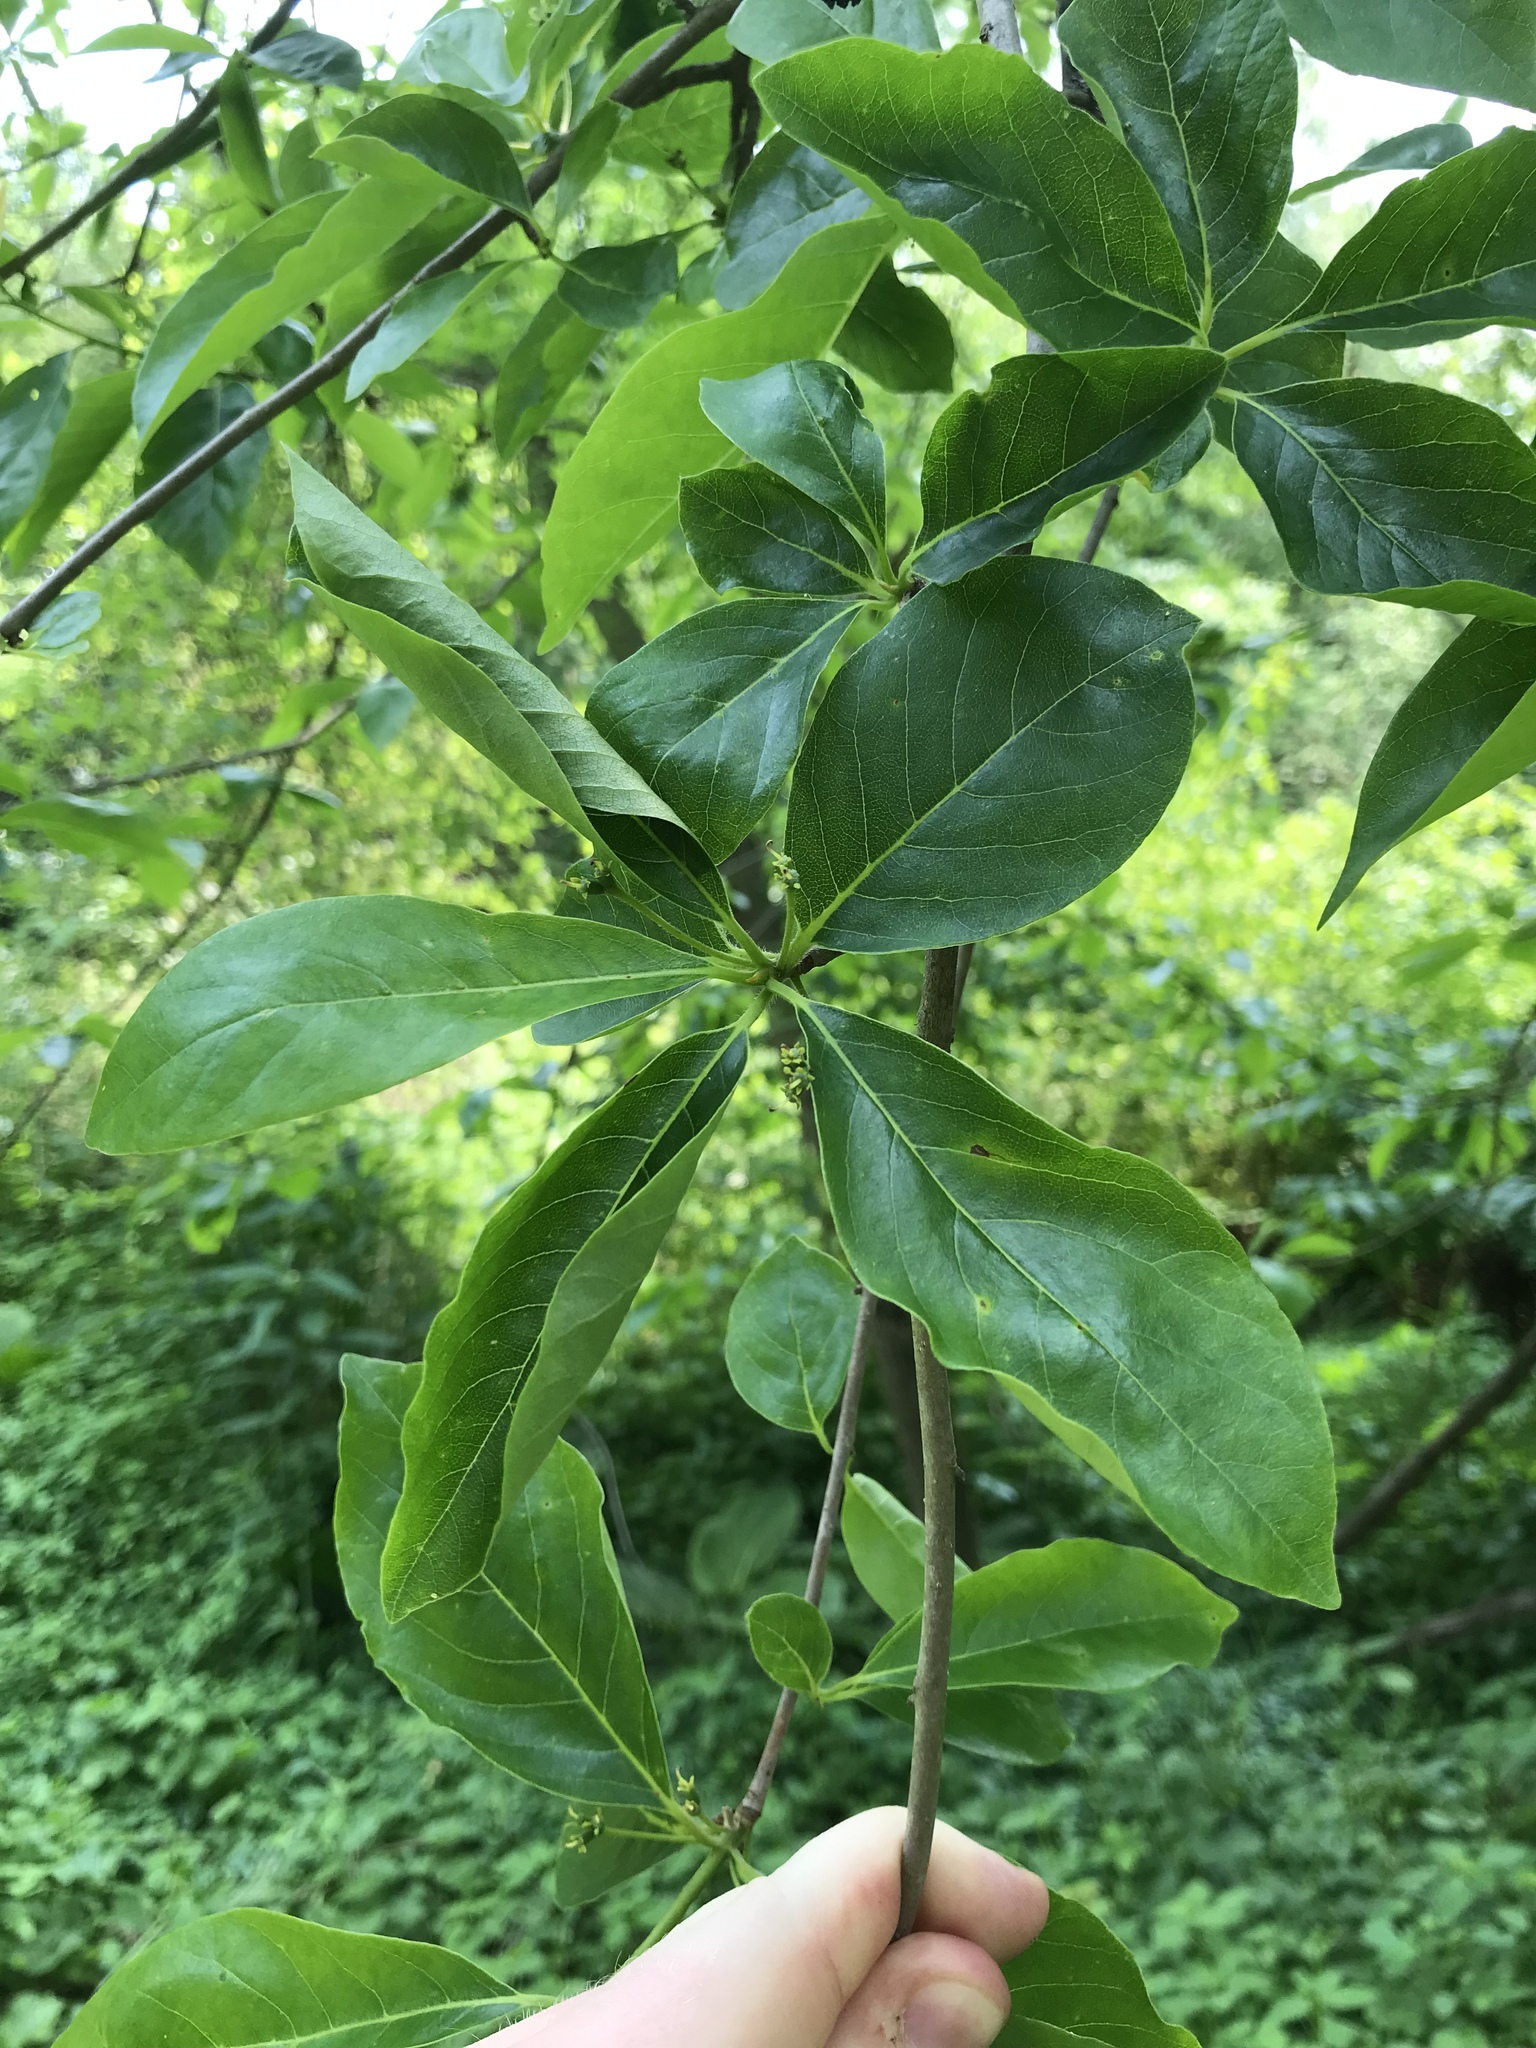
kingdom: Plantae
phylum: Tracheophyta
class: Magnoliopsida
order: Cornales
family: Nyssaceae
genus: Nyssa
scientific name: Nyssa sylvatica
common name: Black tupelo
